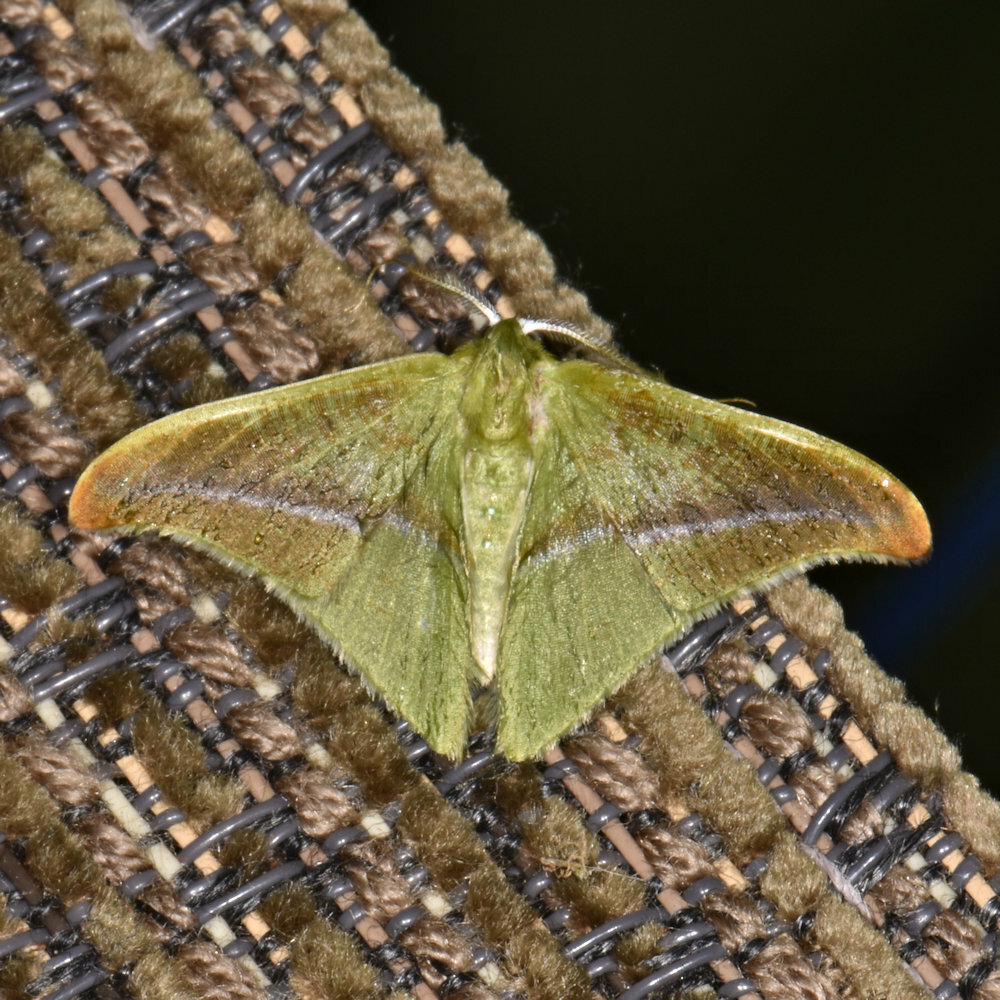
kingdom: Animalia
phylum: Arthropoda
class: Insecta
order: Lepidoptera
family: Geometridae
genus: Tachyphyle
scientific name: Tachyphyle hamata
